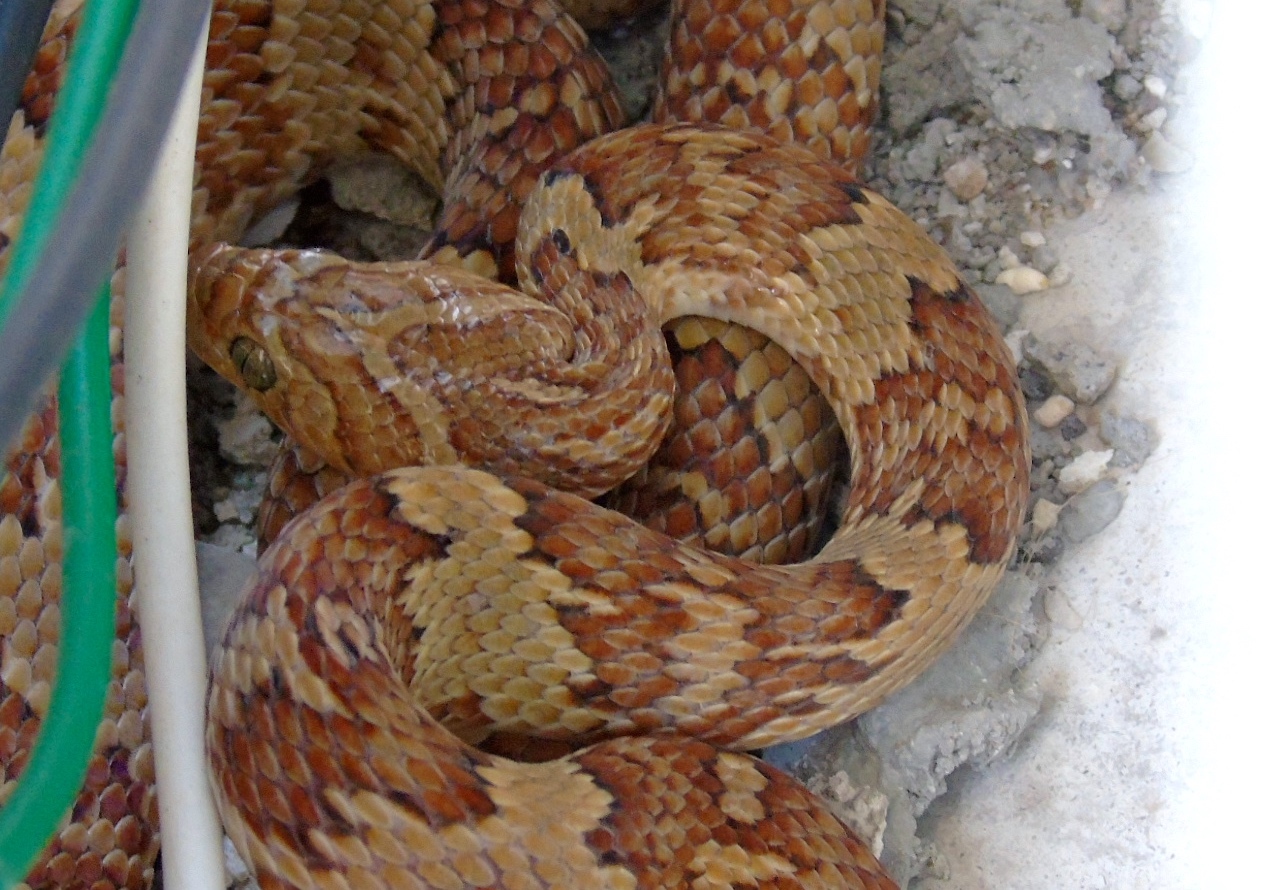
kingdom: Animalia
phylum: Chordata
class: Squamata
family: Colubridae
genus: Trimorphodon
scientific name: Trimorphodon paucimaculatus
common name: Sinaloan lyresnake
